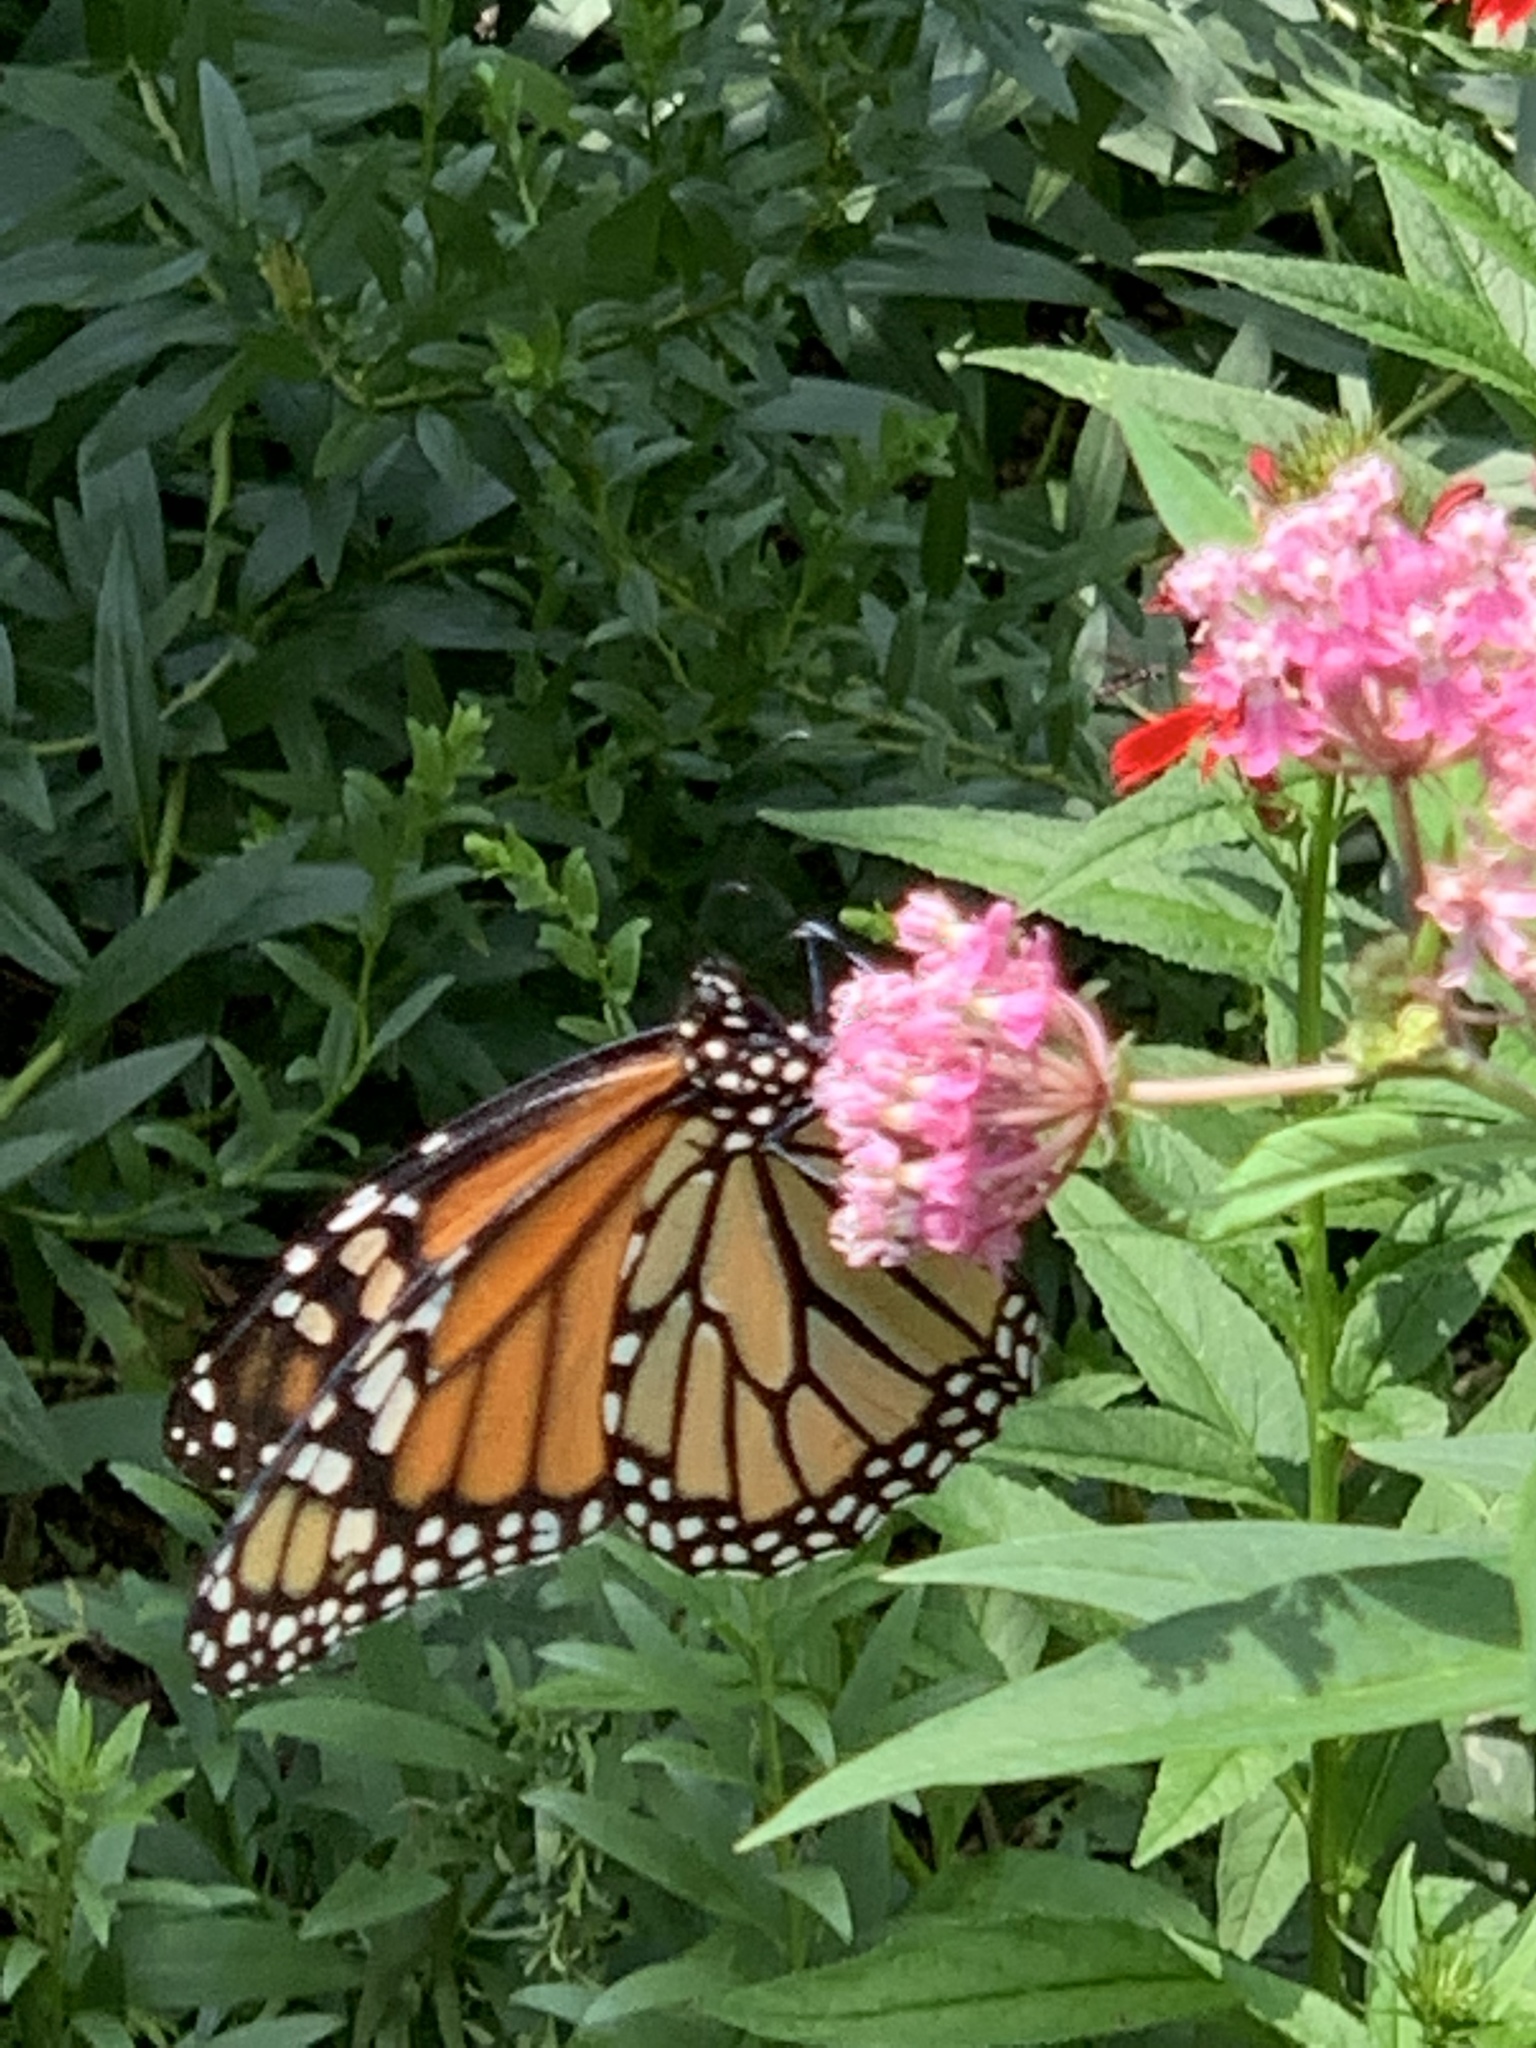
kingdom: Animalia
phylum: Arthropoda
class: Insecta
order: Lepidoptera
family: Nymphalidae
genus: Danaus
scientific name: Danaus plexippus
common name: Monarch
